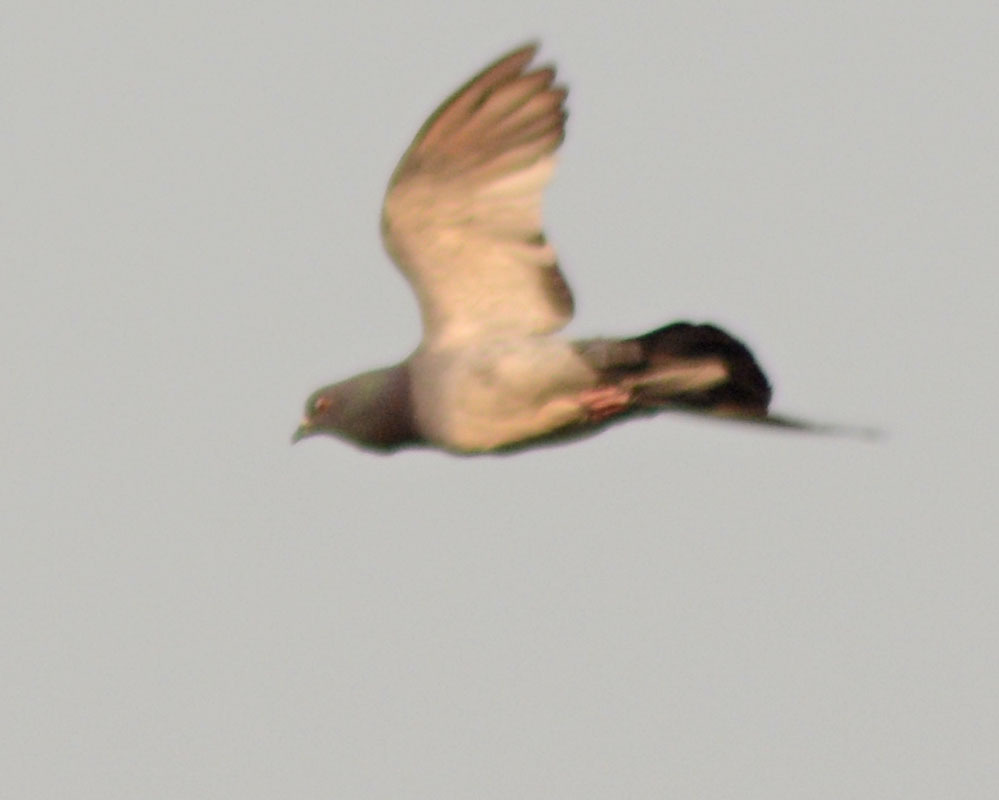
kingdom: Animalia
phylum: Chordata
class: Aves
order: Columbiformes
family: Columbidae
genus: Columba
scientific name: Columba livia
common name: Rock pigeon
